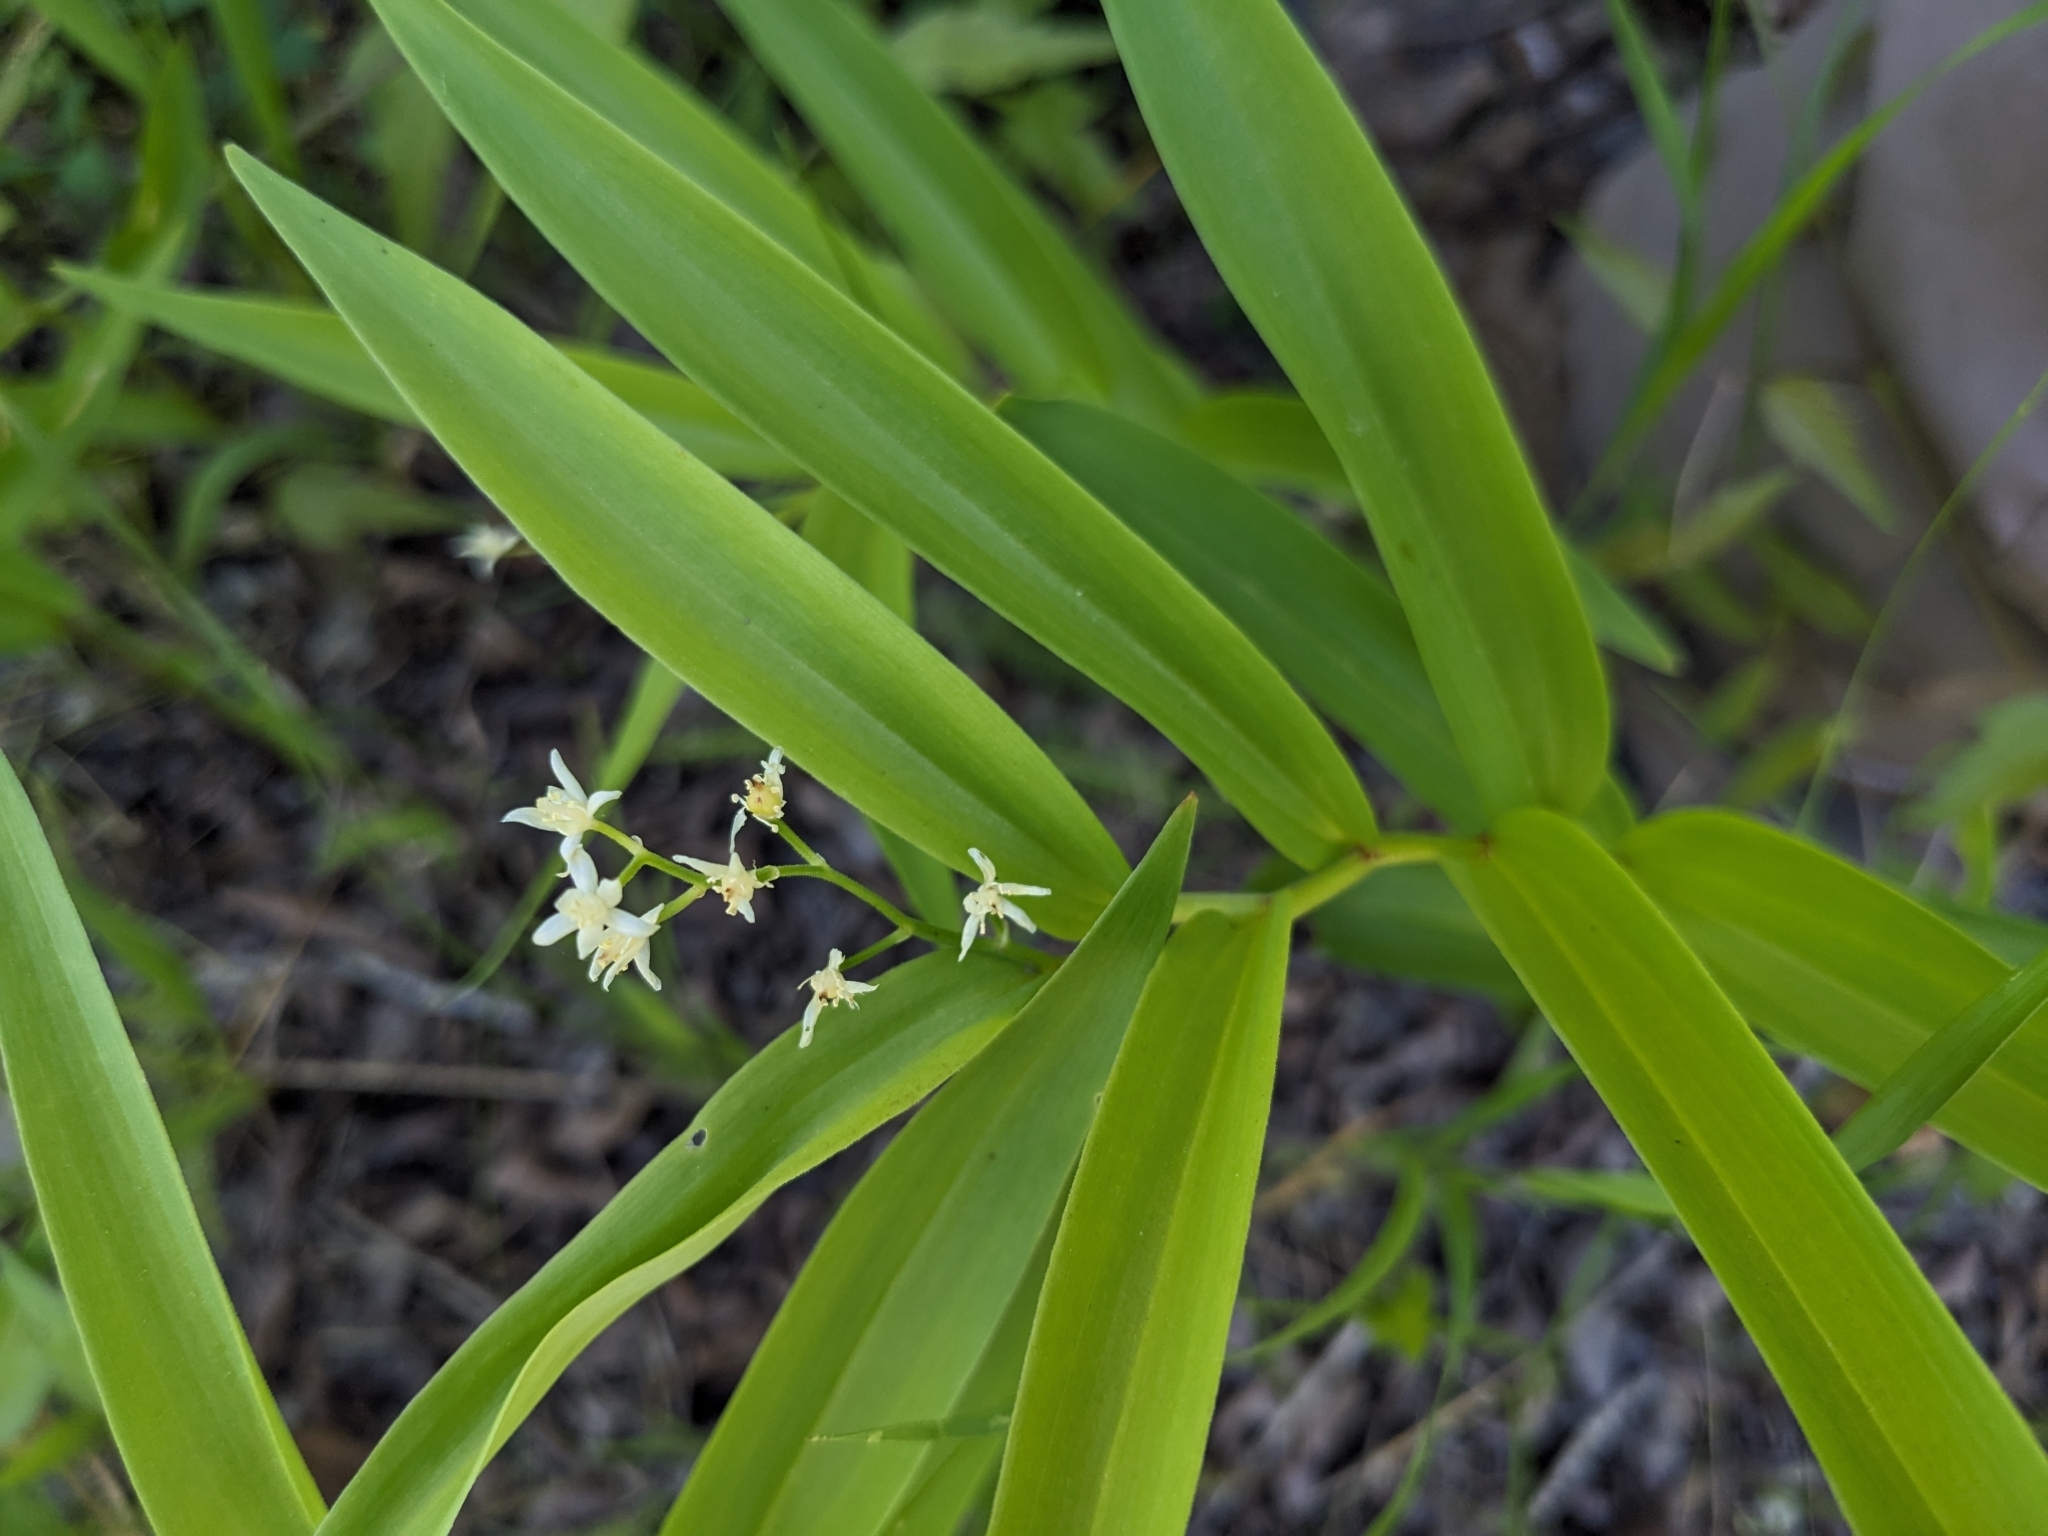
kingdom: Plantae
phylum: Tracheophyta
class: Liliopsida
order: Asparagales
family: Asparagaceae
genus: Maianthemum
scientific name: Maianthemum stellatum
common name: Little false solomon's seal
